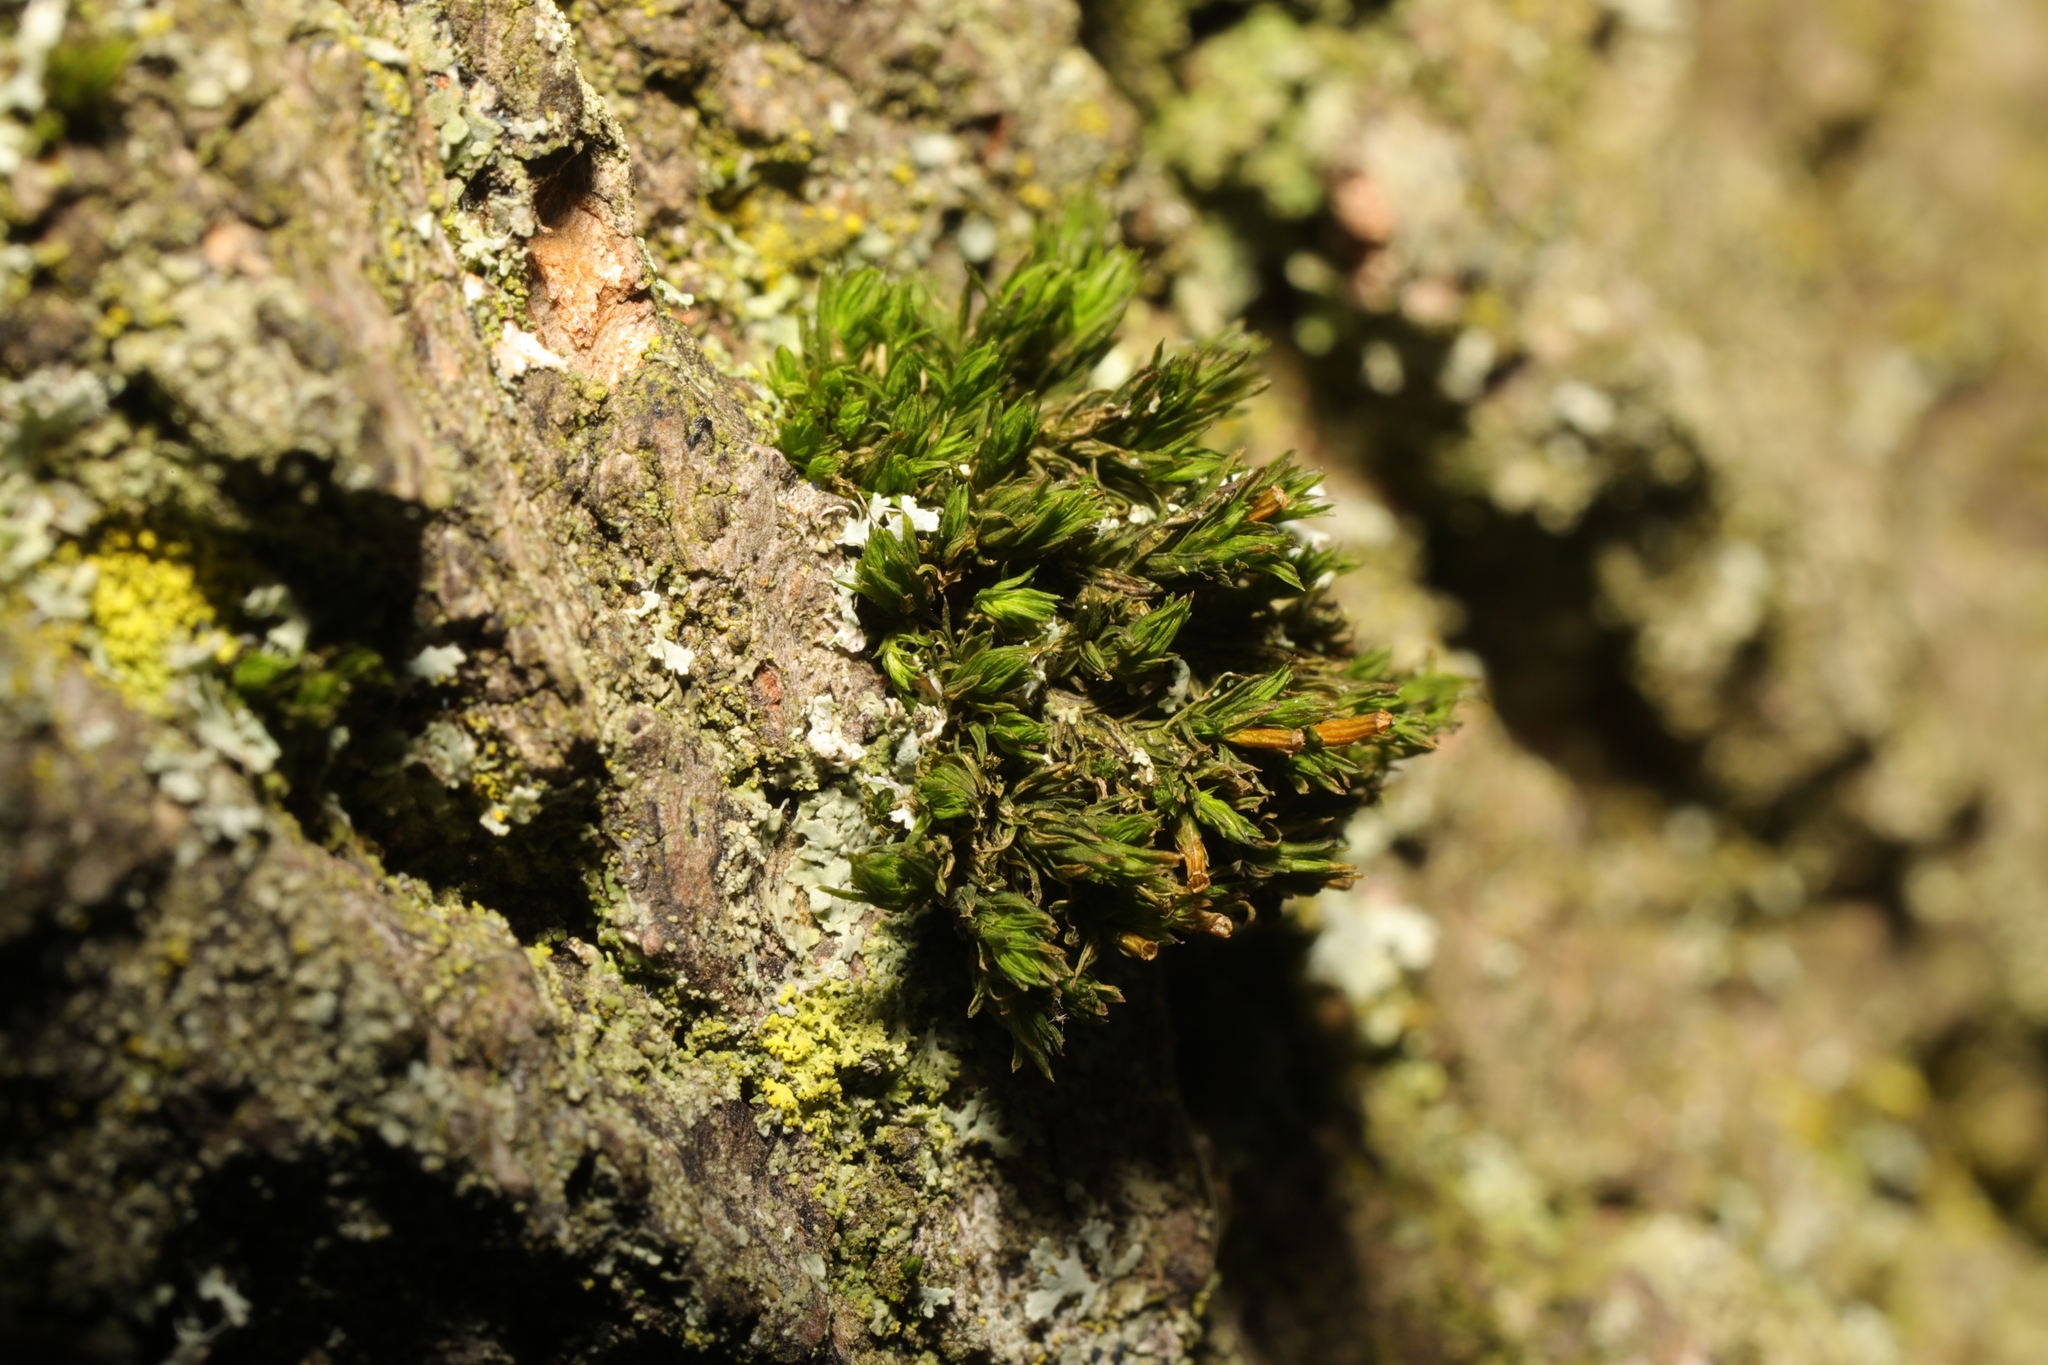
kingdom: Plantae
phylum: Bryophyta
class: Bryopsida
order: Orthotrichales
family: Orthotrichaceae
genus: Lewinskya
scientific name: Lewinskya affinis
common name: Wood bristle-moss
